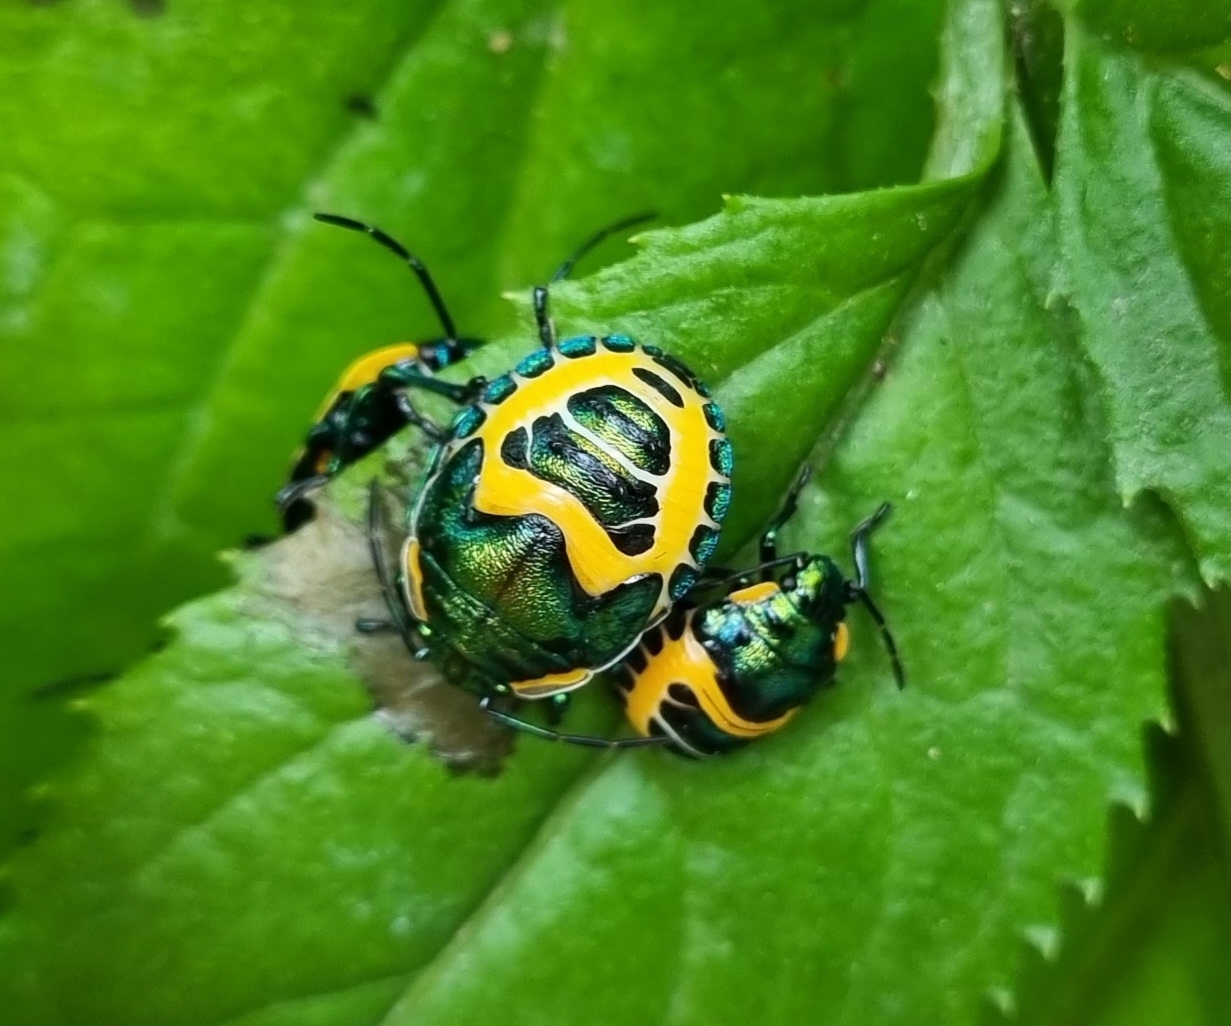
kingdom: Animalia
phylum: Arthropoda
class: Insecta
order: Hemiptera
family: Scutelleridae
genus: Scutiphora
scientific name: Scutiphora pedicellata
